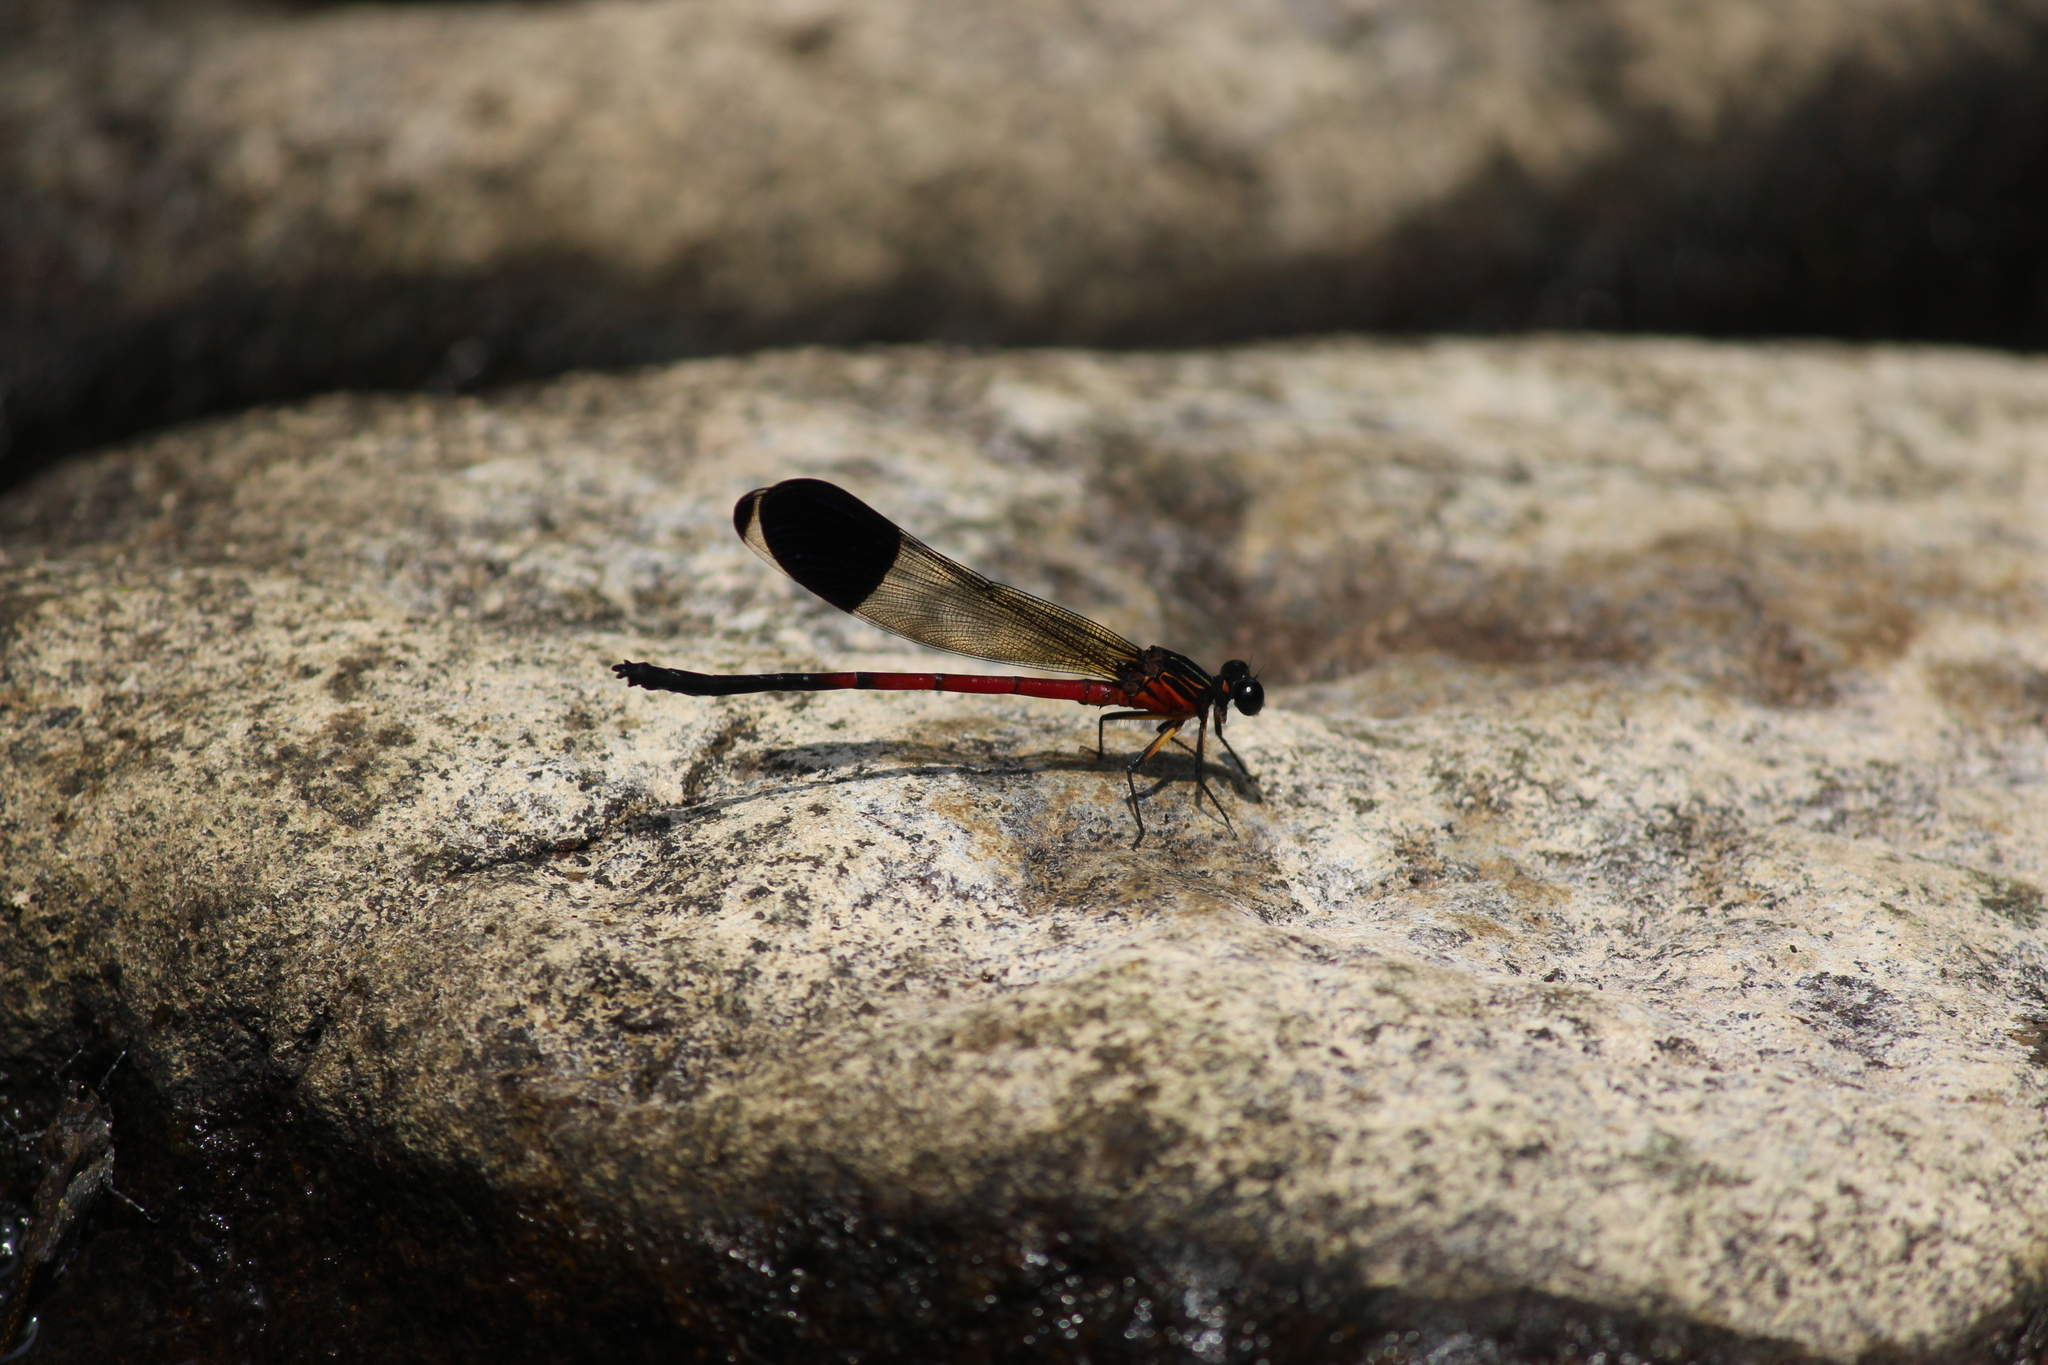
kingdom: Animalia
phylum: Arthropoda
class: Insecta
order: Odonata
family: Euphaeidae
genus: Euphaea
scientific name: Euphaea dispar
